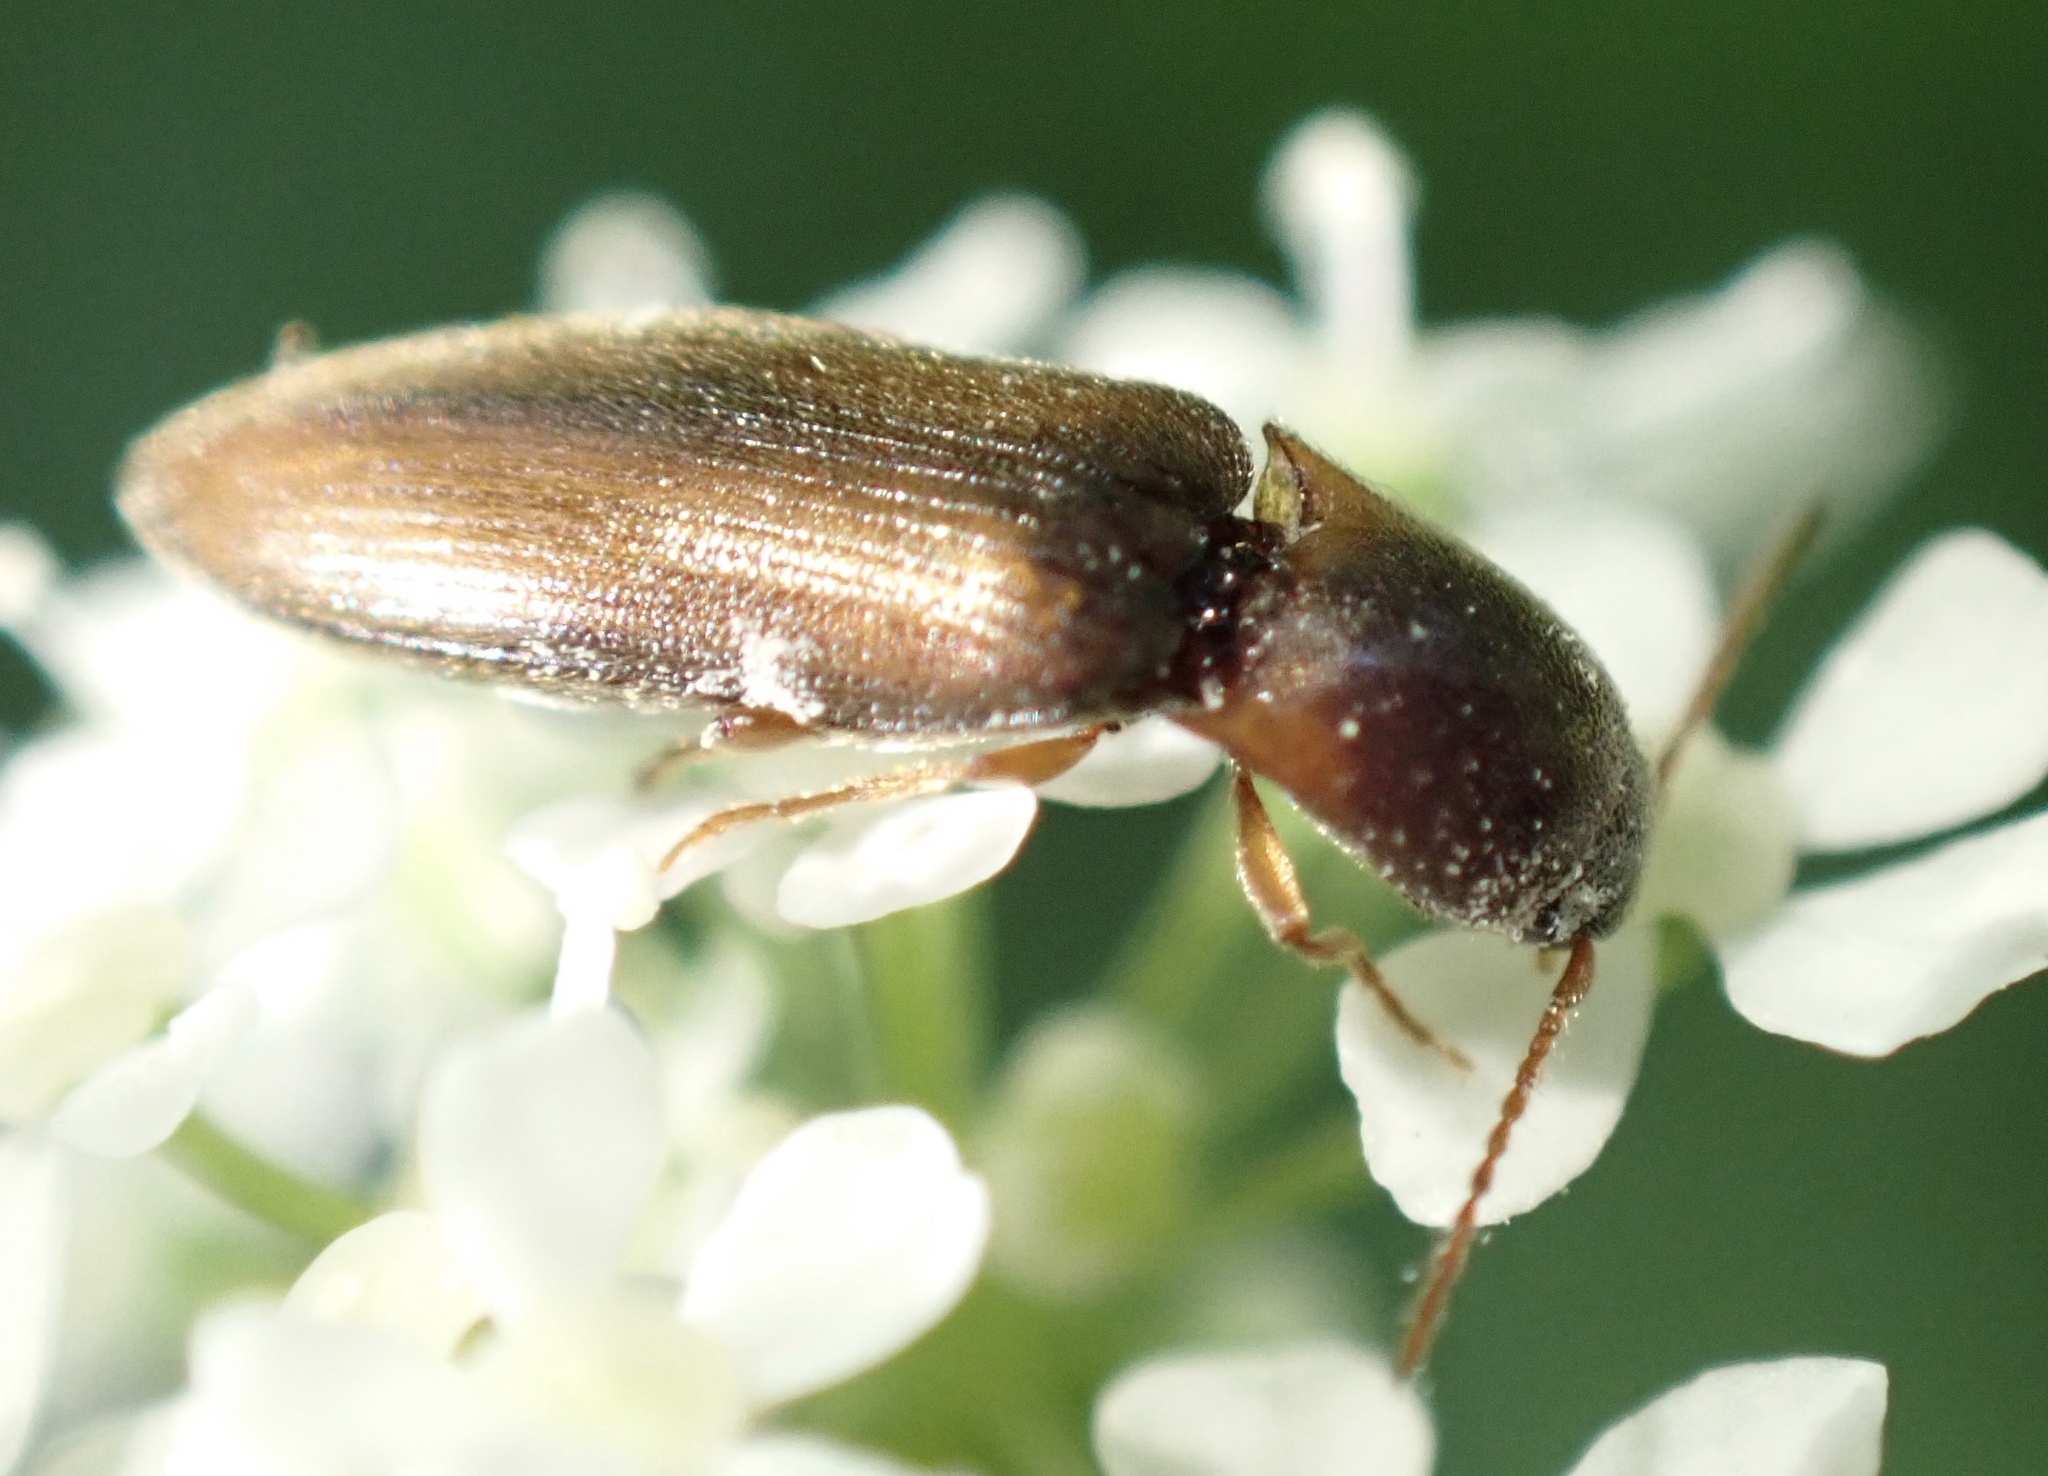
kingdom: Animalia
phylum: Arthropoda
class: Insecta
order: Coleoptera
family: Elateridae
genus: Agriotes
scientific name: Agriotes acuminatus
